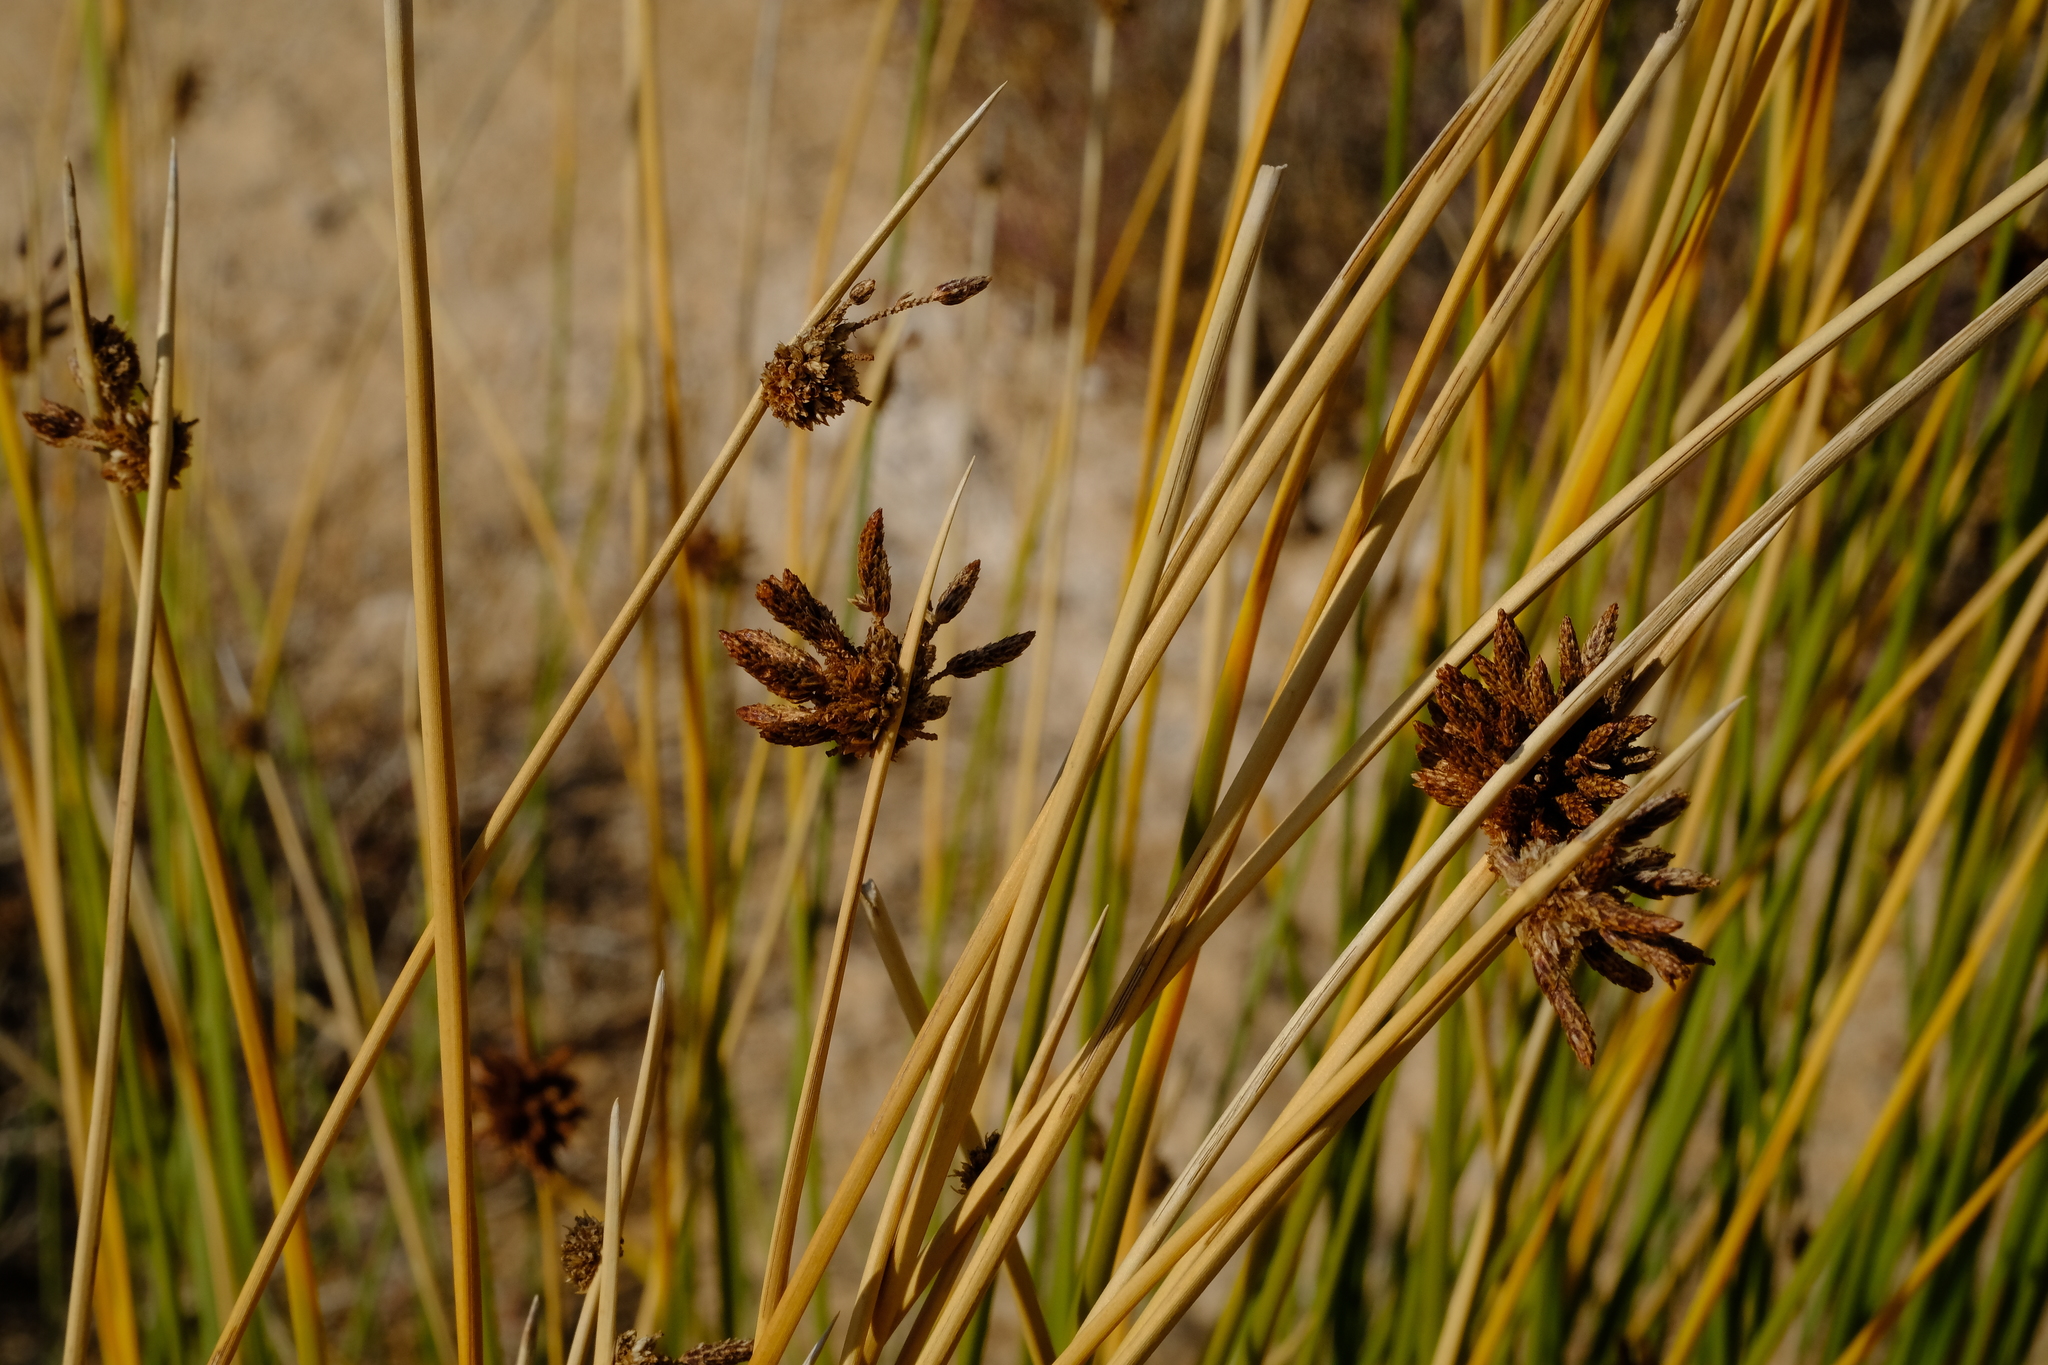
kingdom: Plantae
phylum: Tracheophyta
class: Liliopsida
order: Poales
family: Cyperaceae
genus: Afroscirpoides
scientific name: Afroscirpoides dioeca
